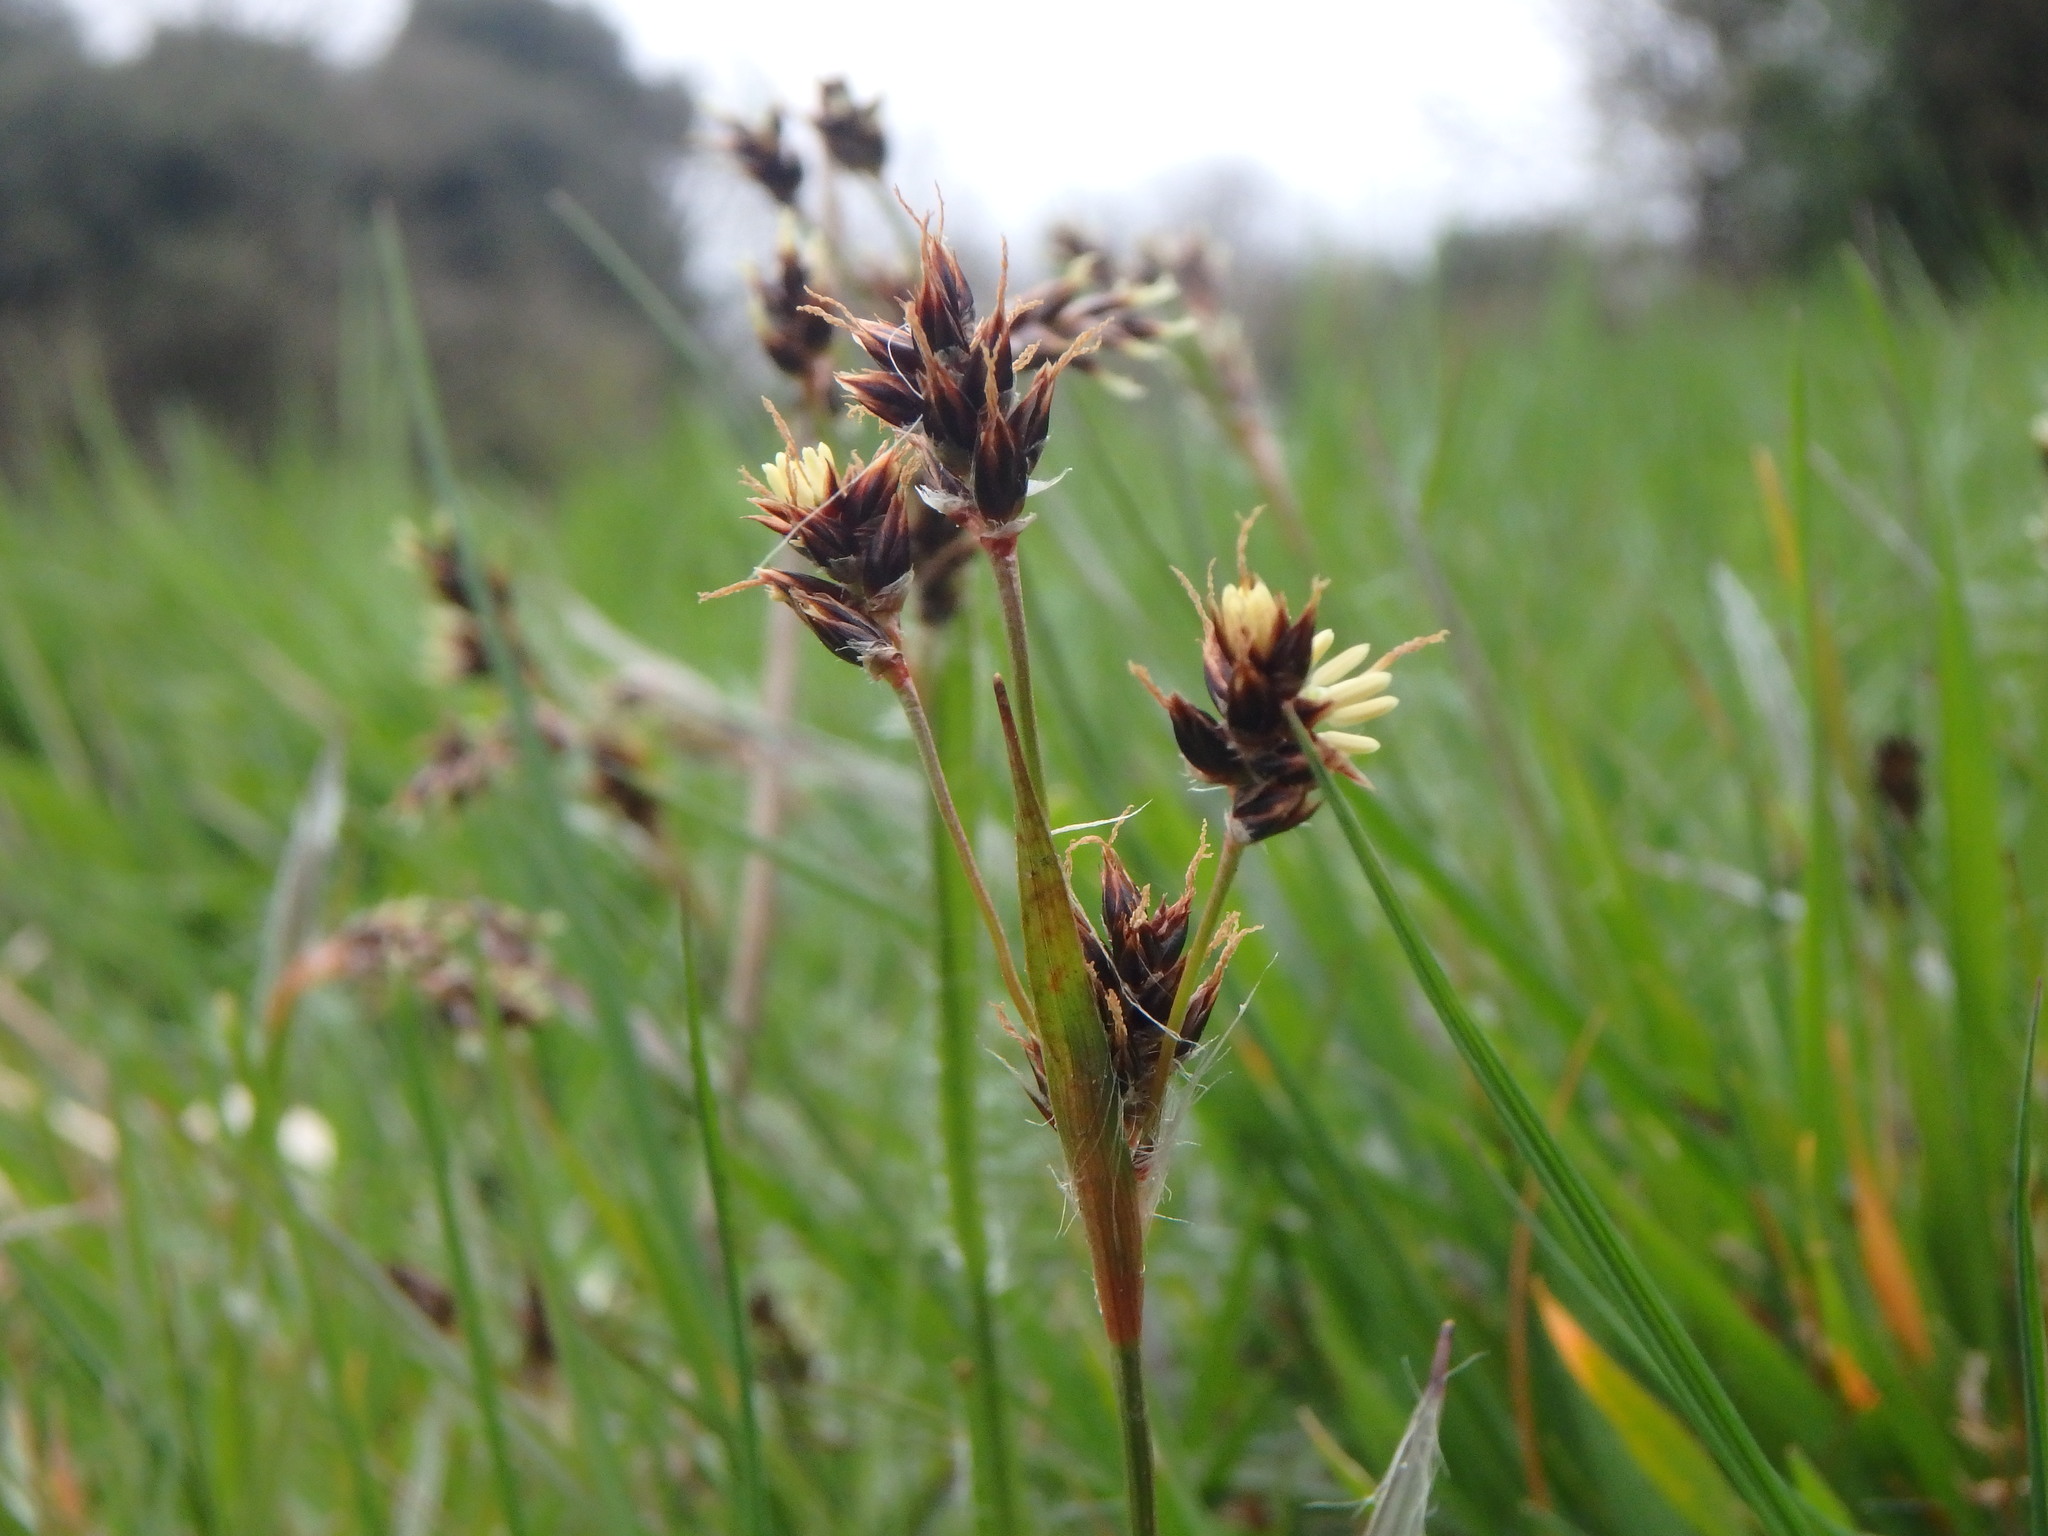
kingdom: Plantae
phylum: Tracheophyta
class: Liliopsida
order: Poales
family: Juncaceae
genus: Luzula
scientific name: Luzula campestris
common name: Field wood-rush
